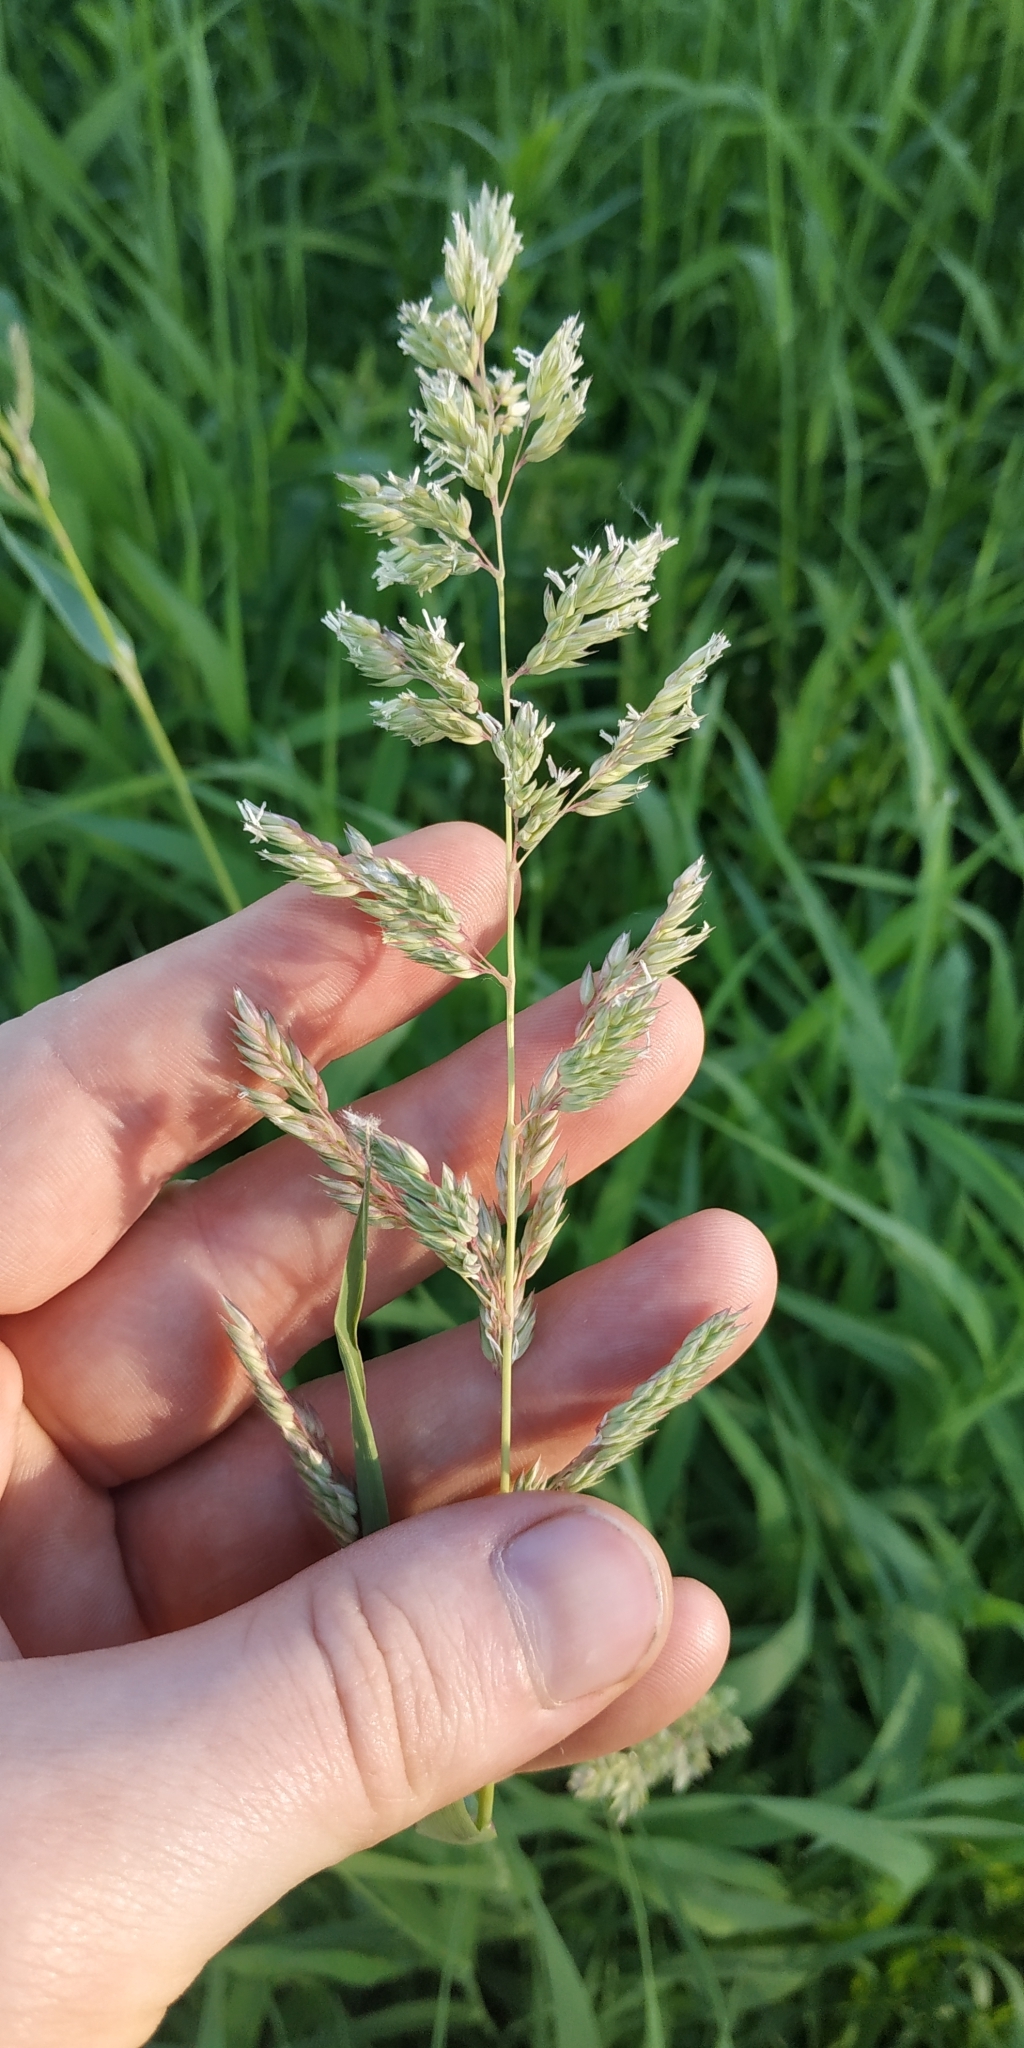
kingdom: Plantae
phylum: Tracheophyta
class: Liliopsida
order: Poales
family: Poaceae
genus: Phalaris
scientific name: Phalaris arundinacea
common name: Reed canary-grass
